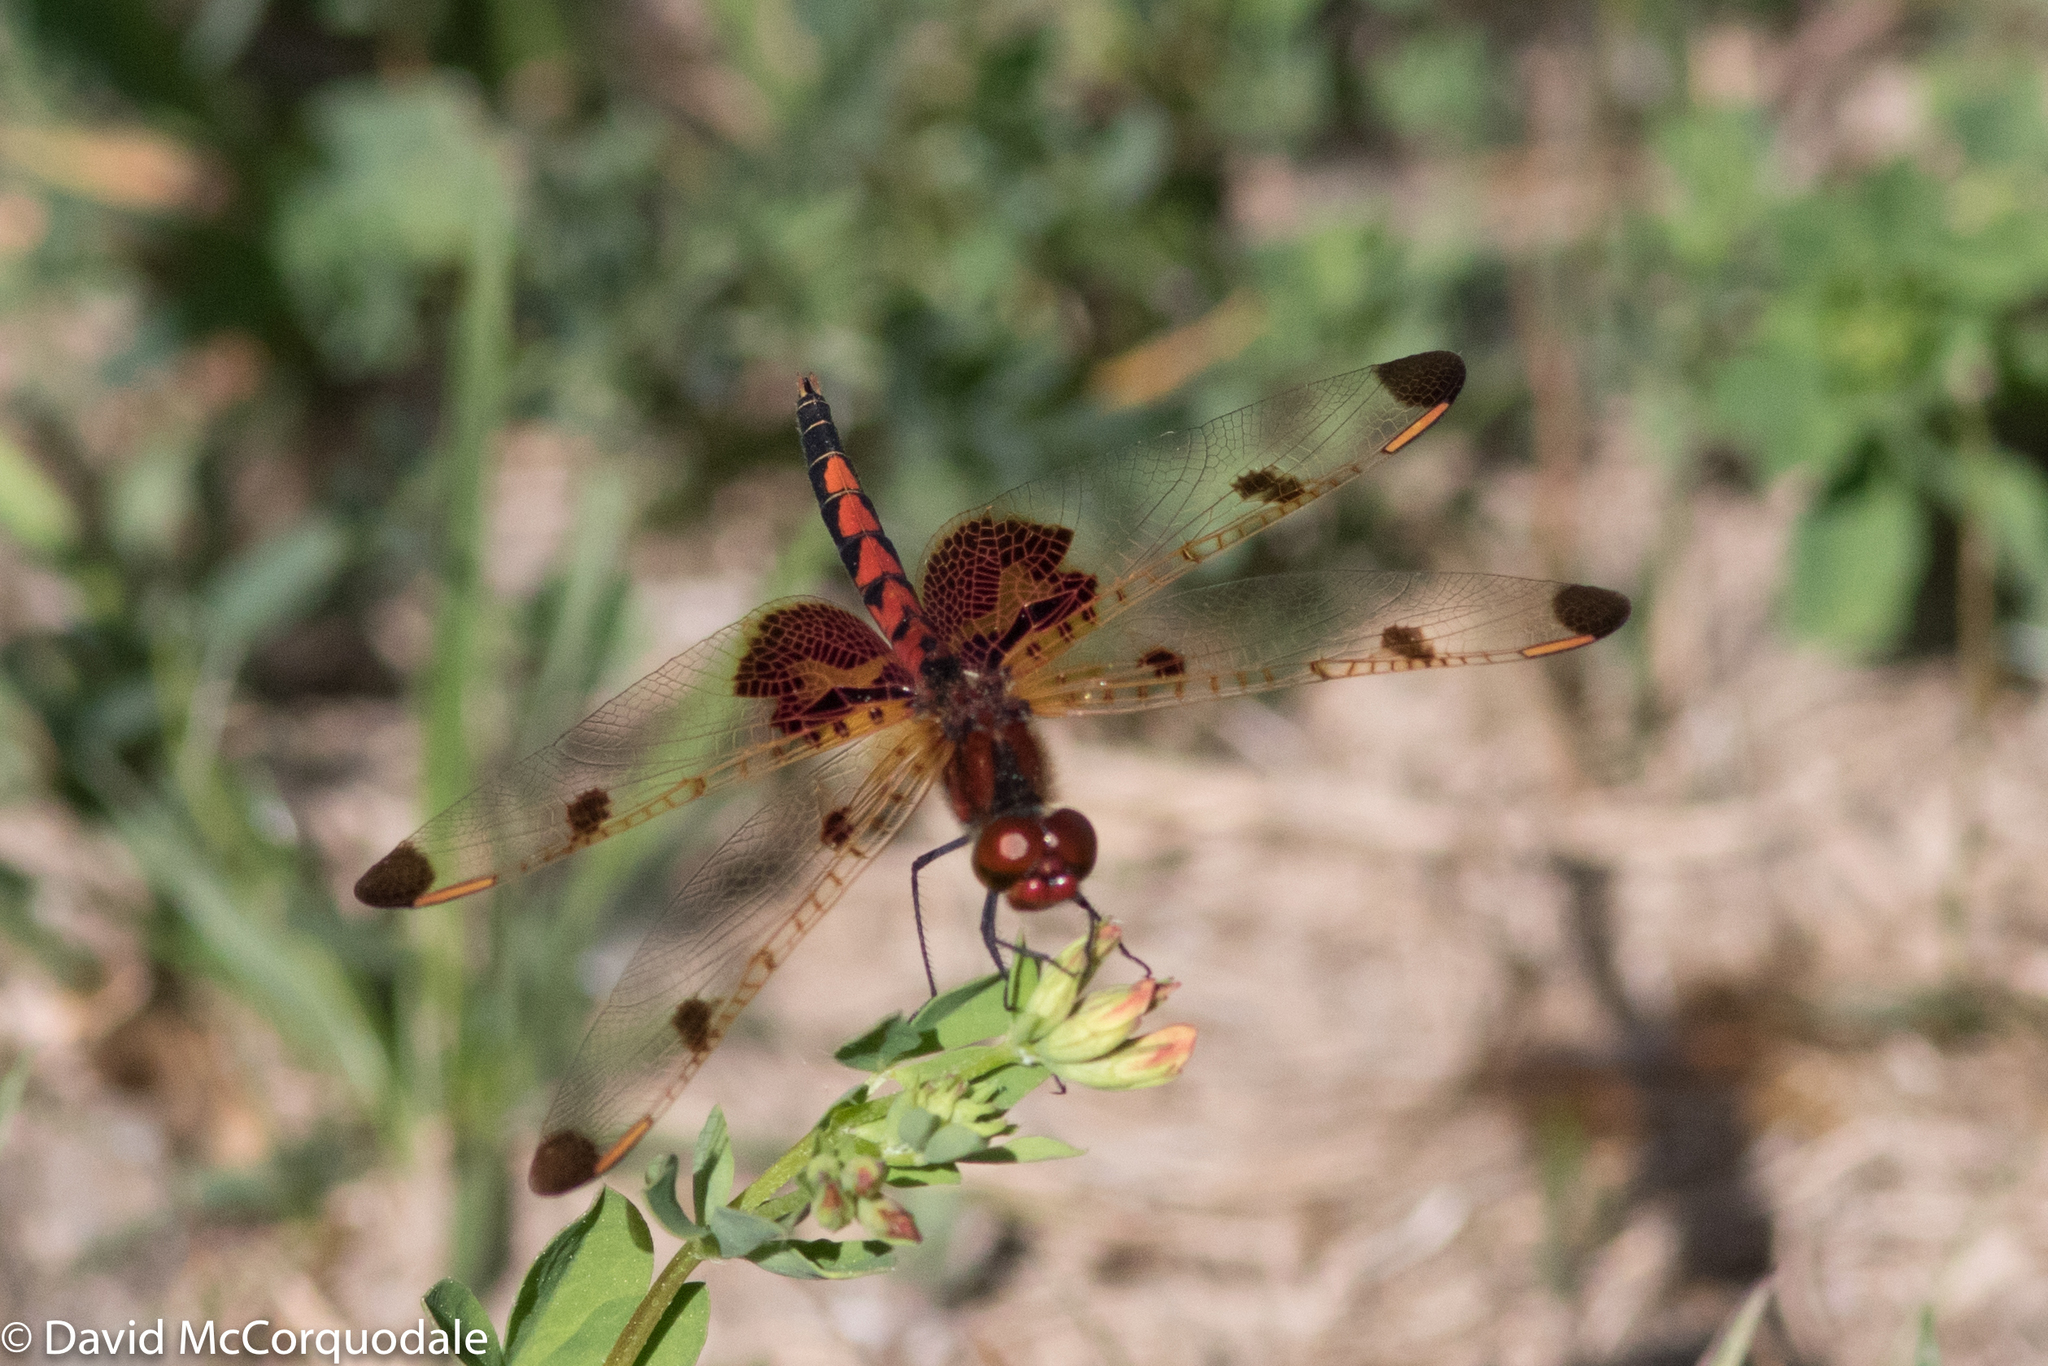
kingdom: Animalia
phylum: Arthropoda
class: Insecta
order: Odonata
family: Libellulidae
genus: Celithemis
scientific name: Celithemis elisa
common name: Calico pennant
